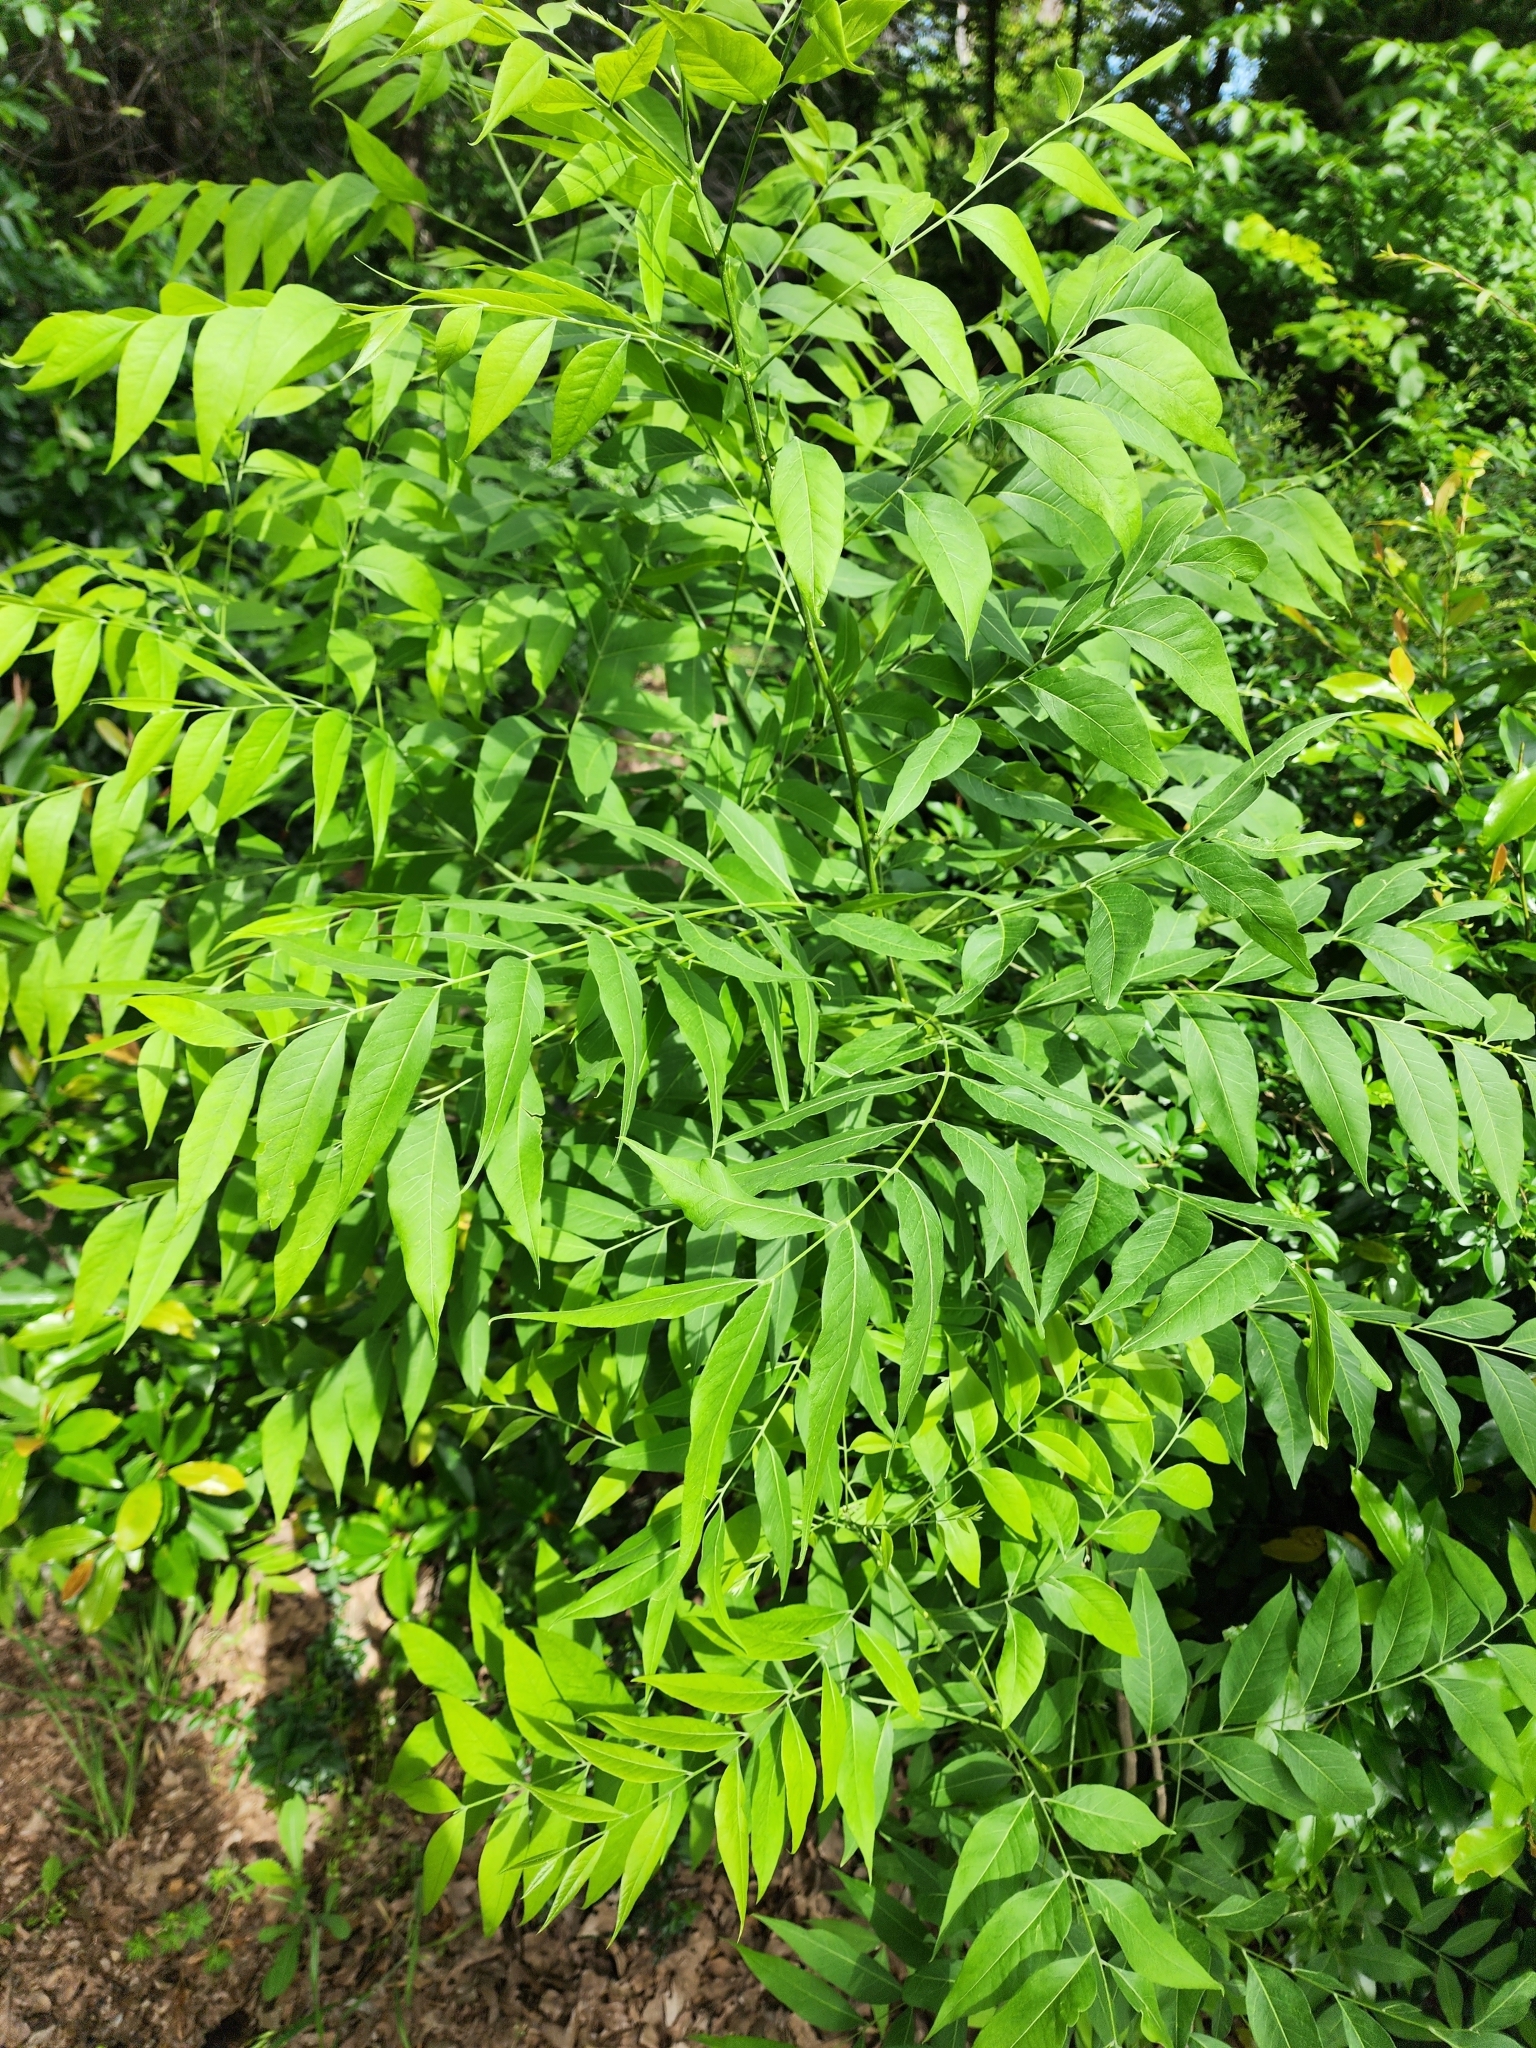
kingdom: Plantae
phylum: Tracheophyta
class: Magnoliopsida
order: Sapindales
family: Sapindaceae
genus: Sapindus
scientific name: Sapindus drummondii
